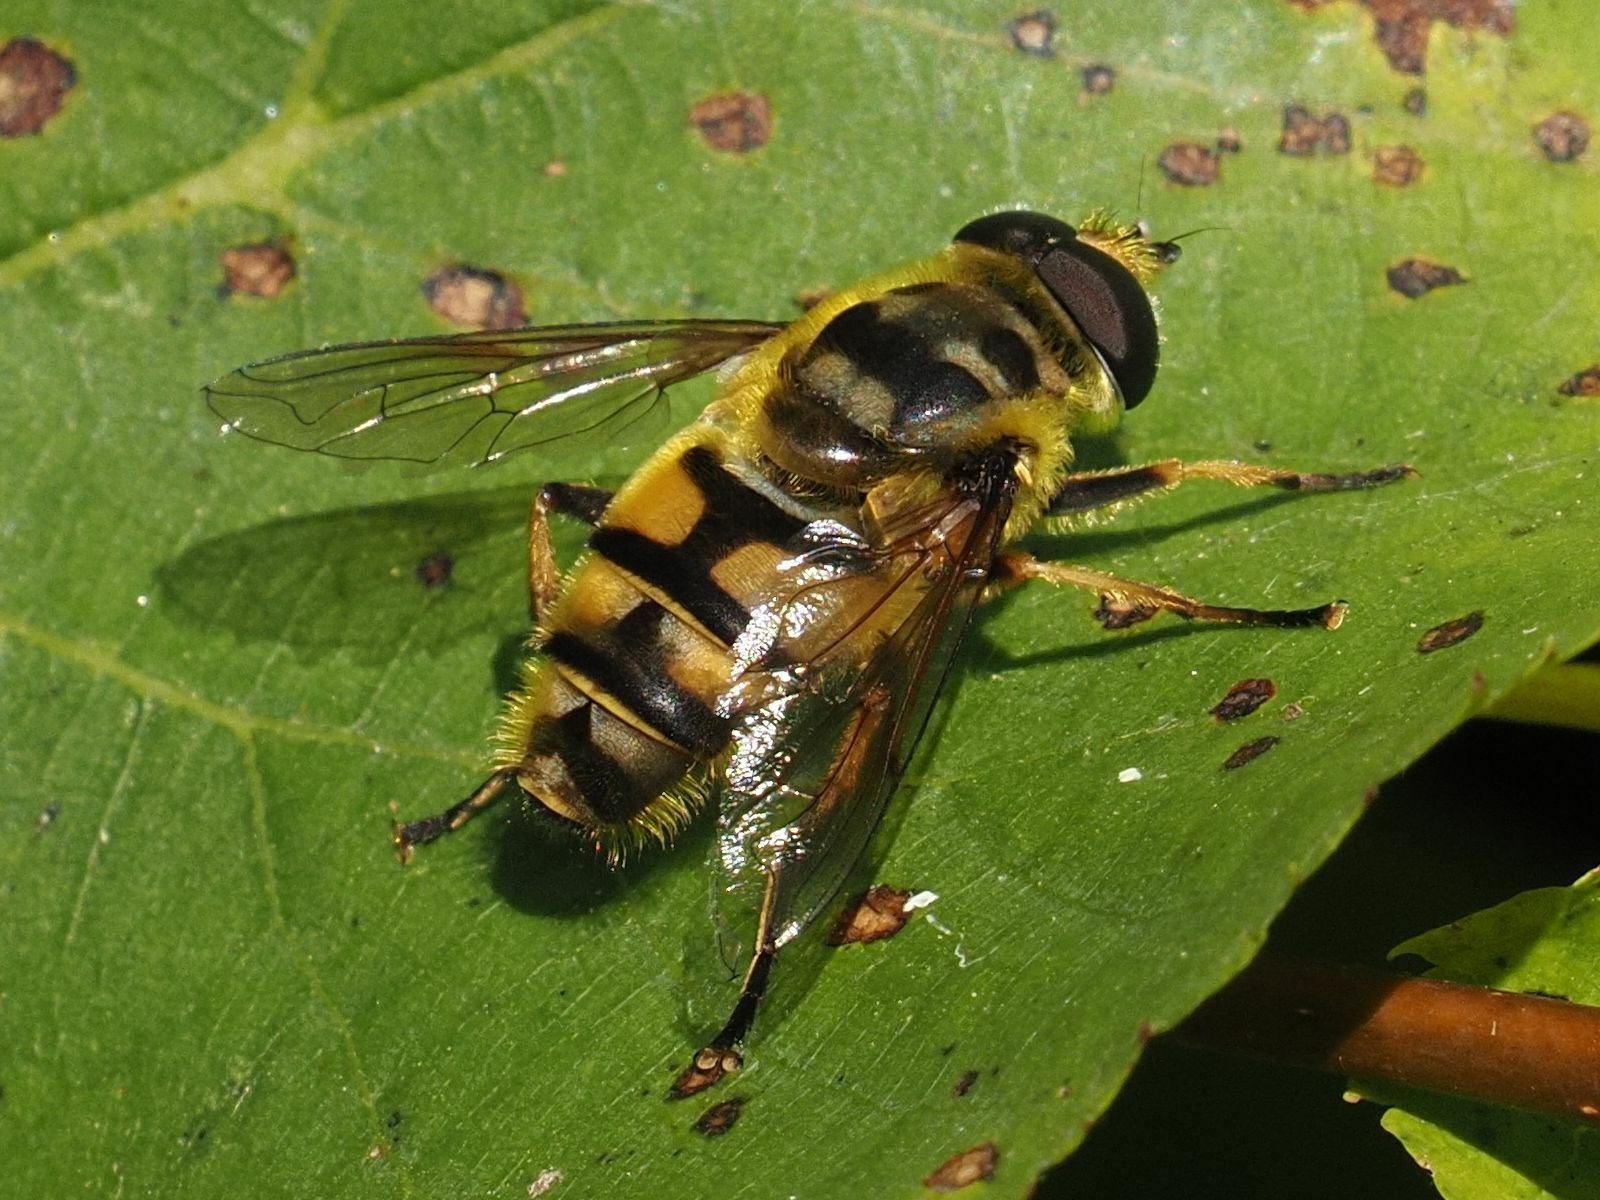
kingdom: Animalia
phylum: Arthropoda
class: Insecta
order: Diptera
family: Syrphidae
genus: Myathropa
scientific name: Myathropa florea
